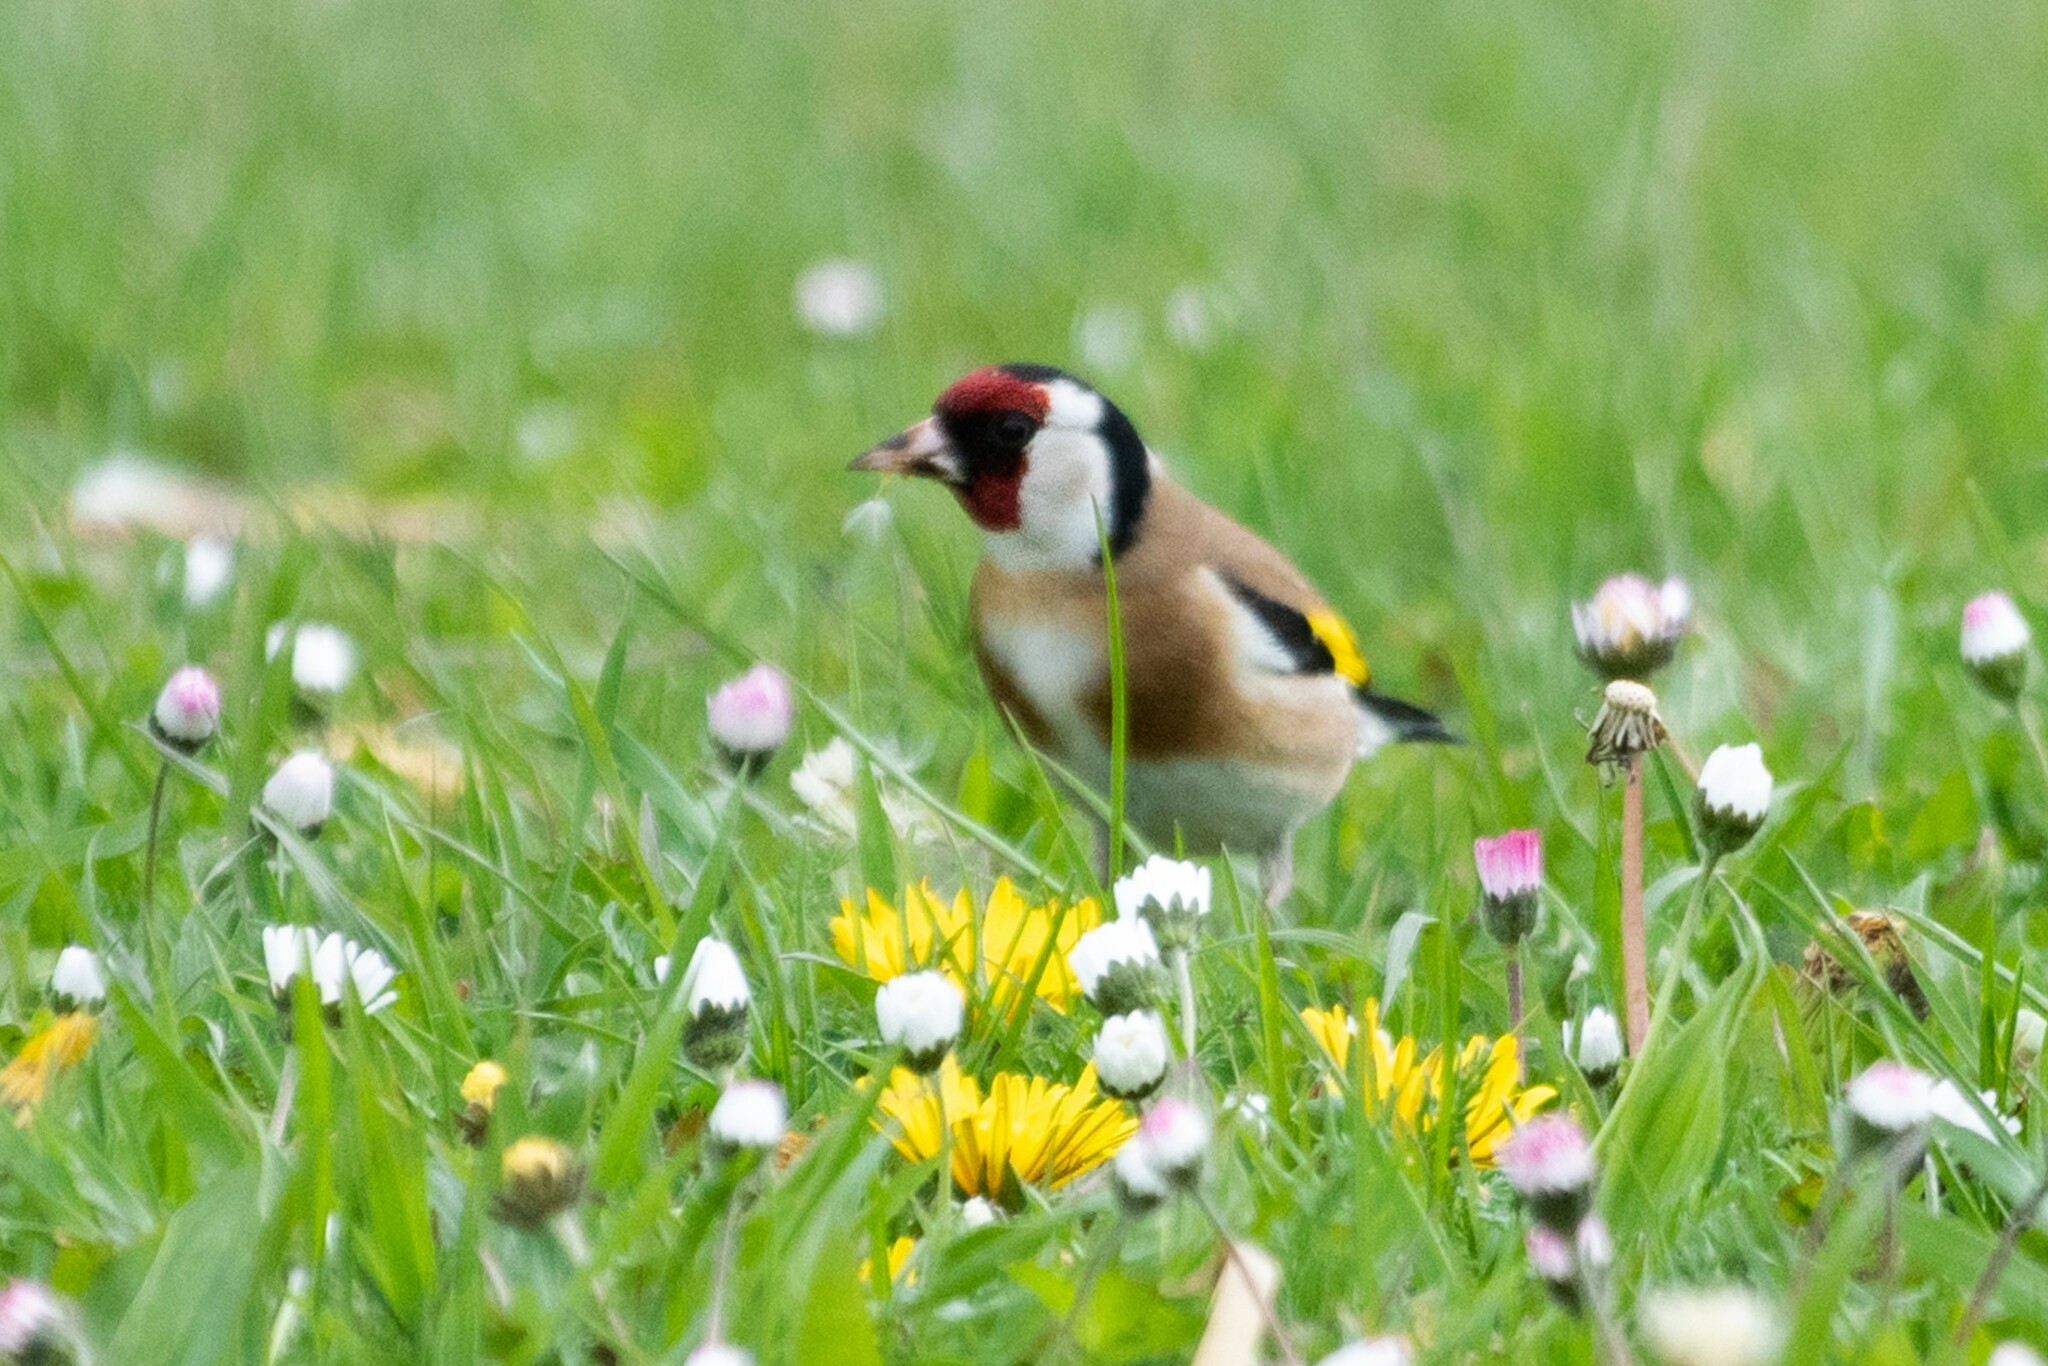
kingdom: Animalia
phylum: Chordata
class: Aves
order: Passeriformes
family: Fringillidae
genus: Carduelis
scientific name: Carduelis carduelis
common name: European goldfinch
